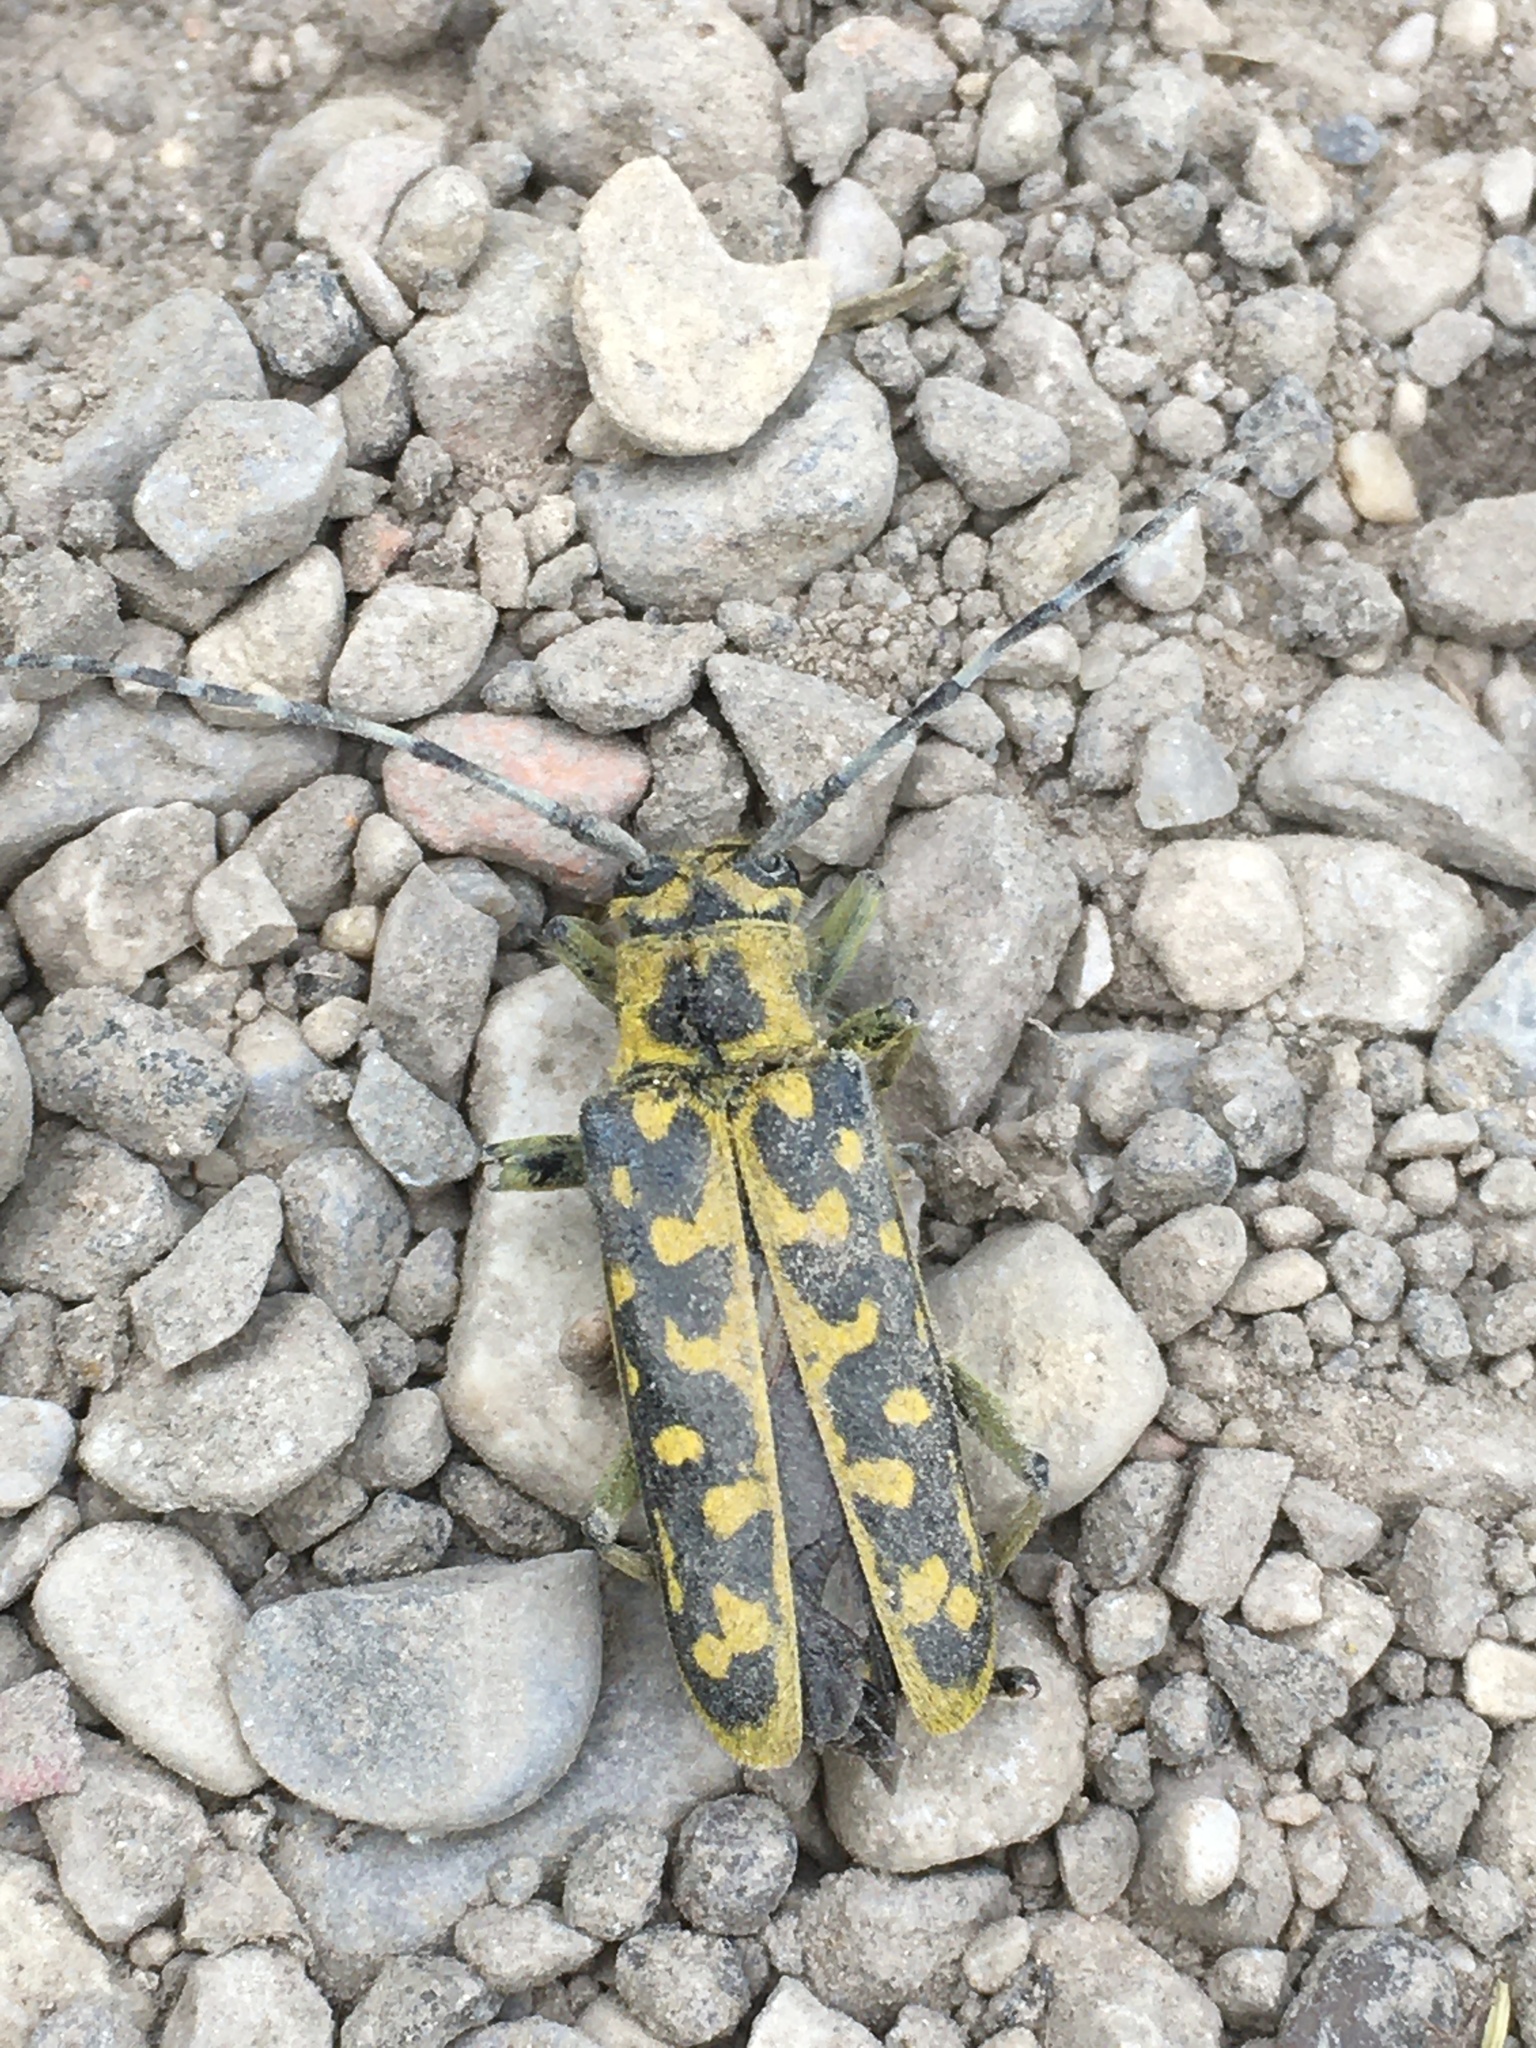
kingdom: Animalia
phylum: Arthropoda
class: Insecta
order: Coleoptera
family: Cerambycidae
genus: Saperda
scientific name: Saperda scalaris
